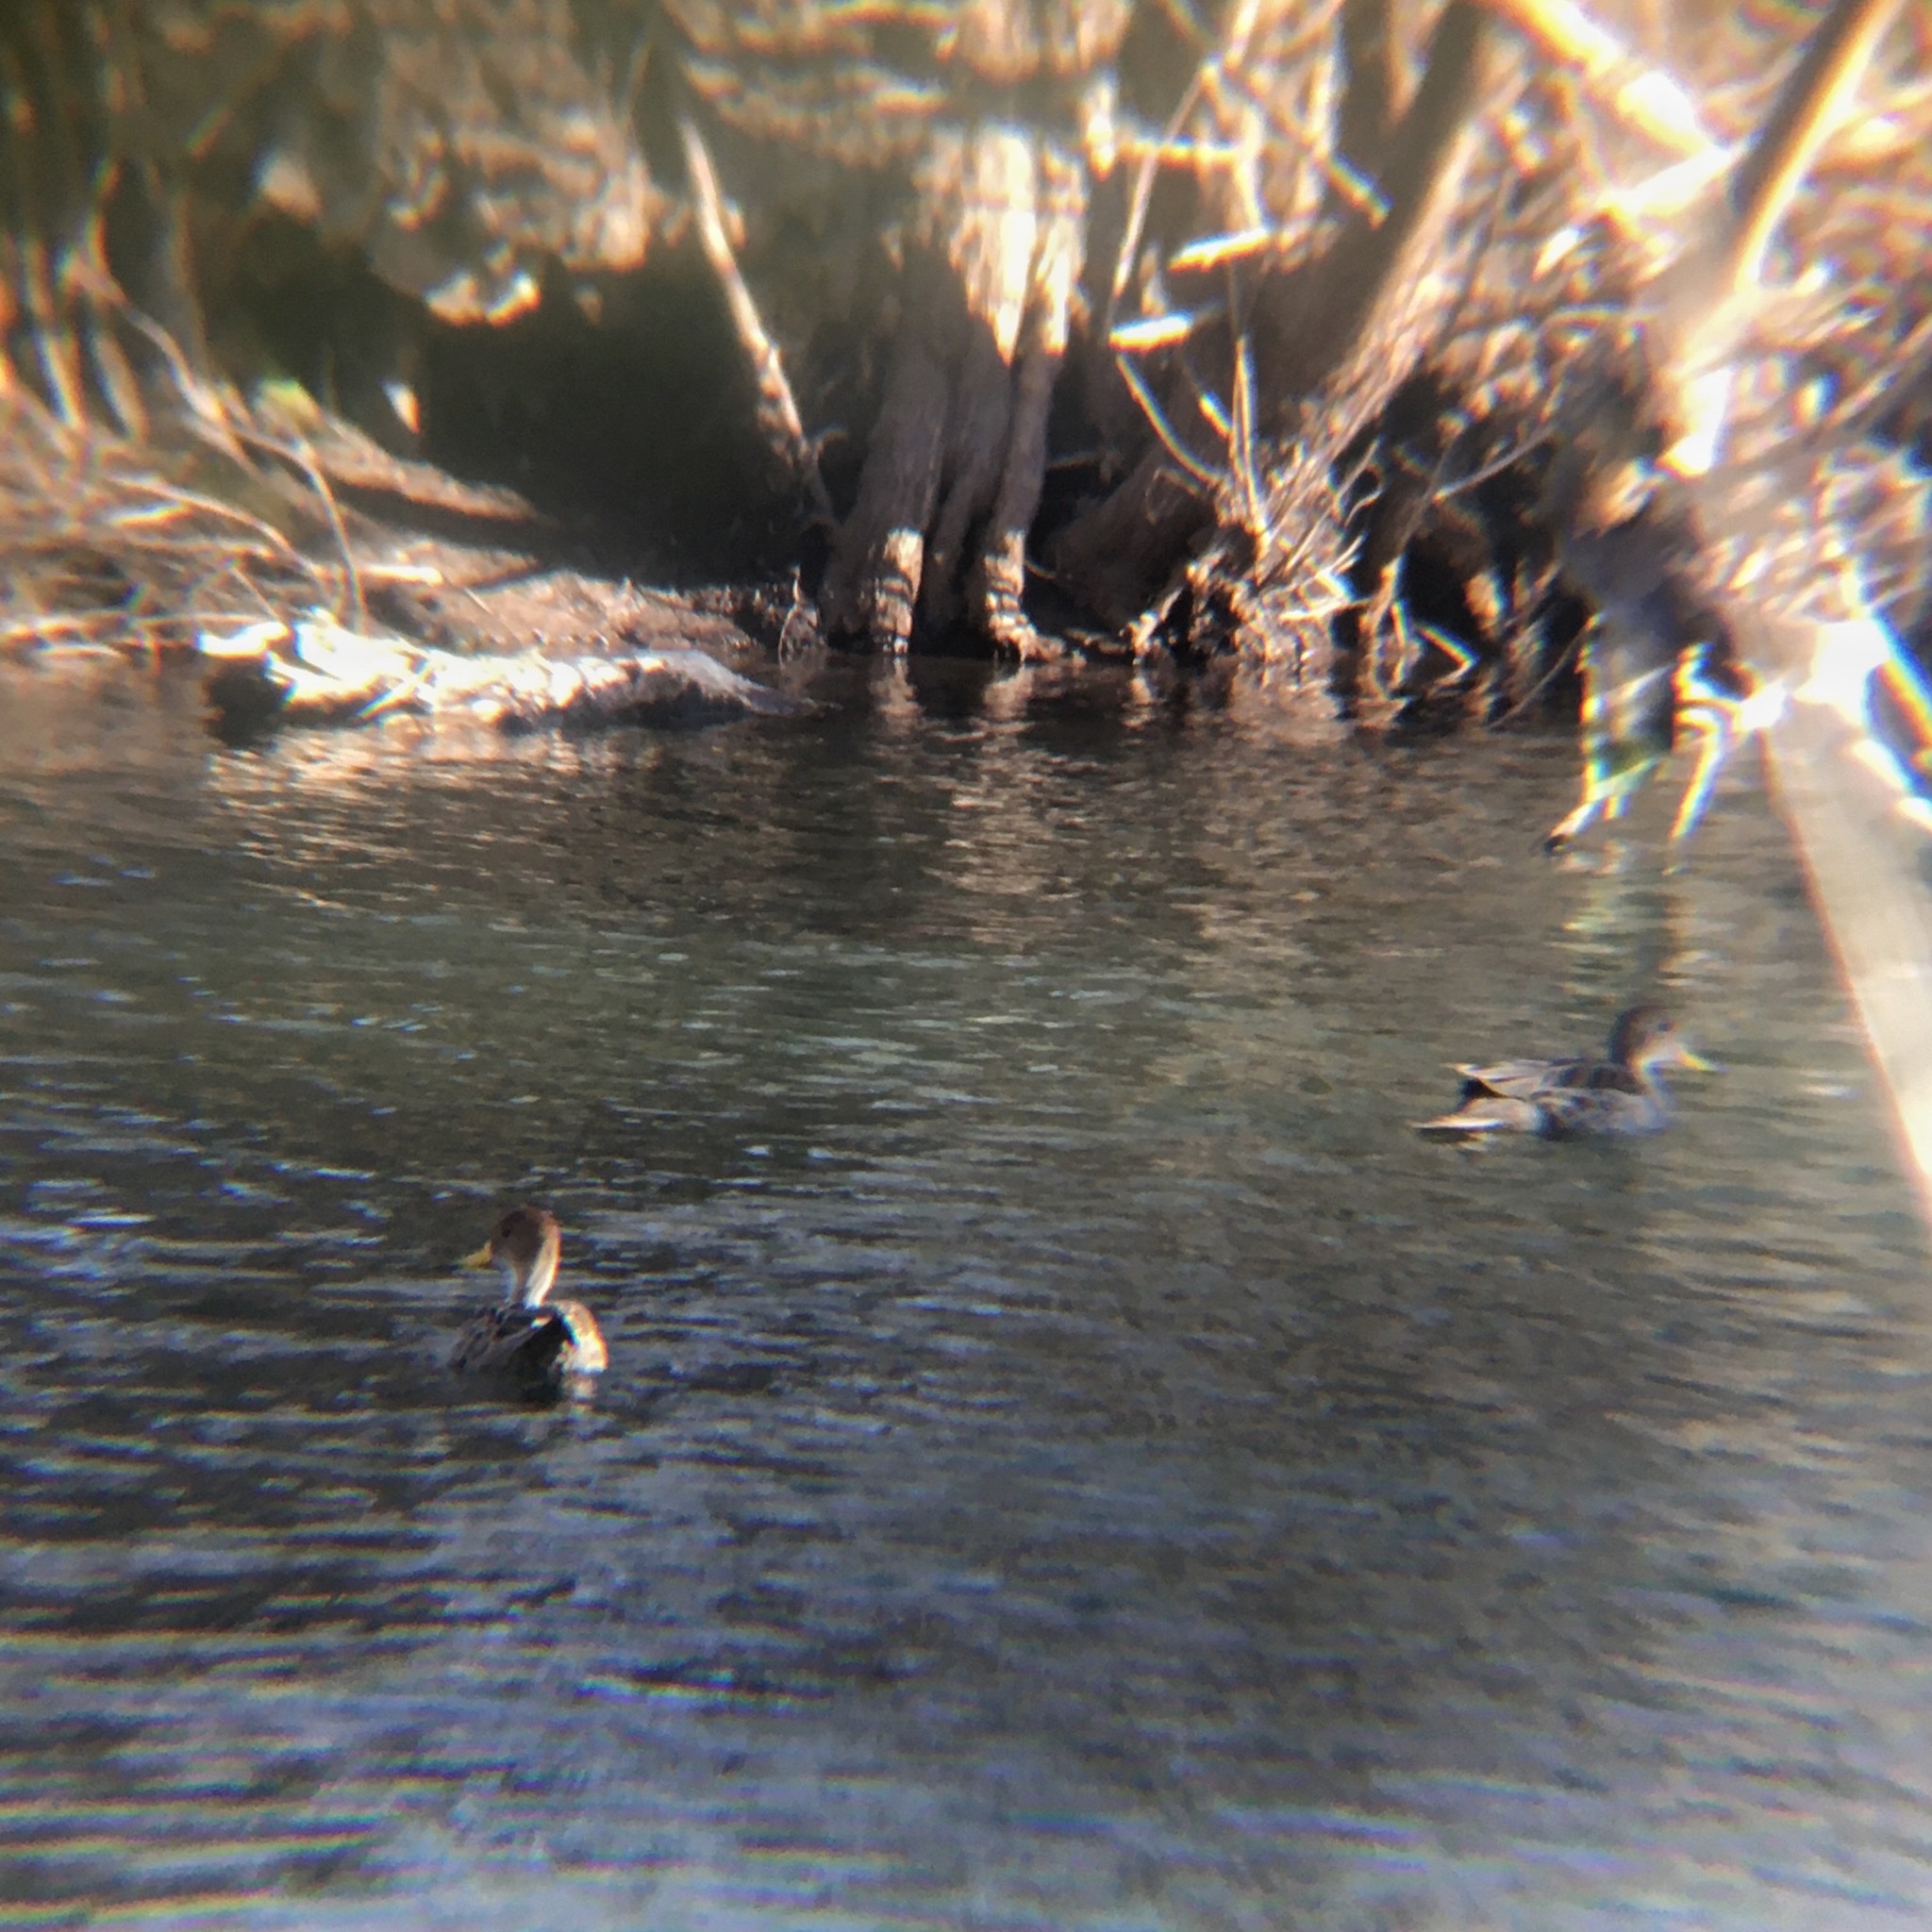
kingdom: Animalia
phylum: Chordata
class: Aves
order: Anseriformes
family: Anatidae
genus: Anas
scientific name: Anas georgica
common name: Yellow-billed pintail
